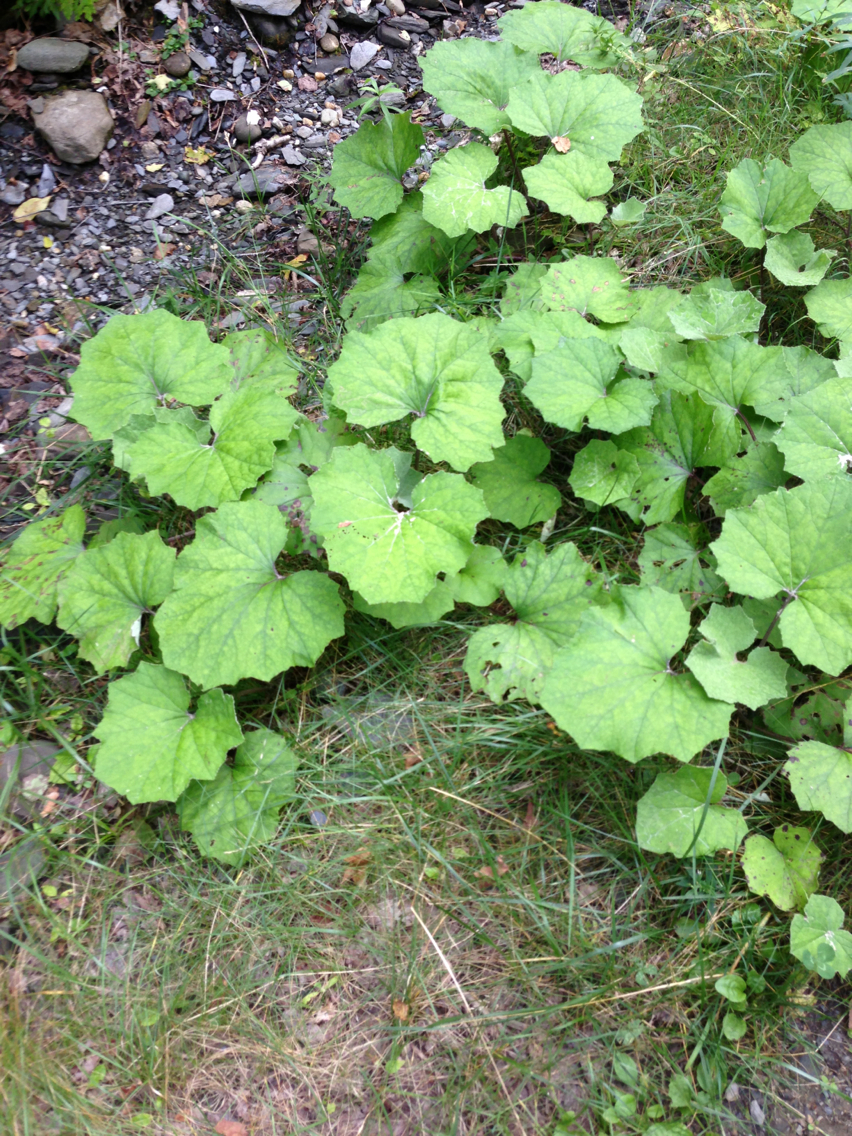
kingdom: Plantae
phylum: Tracheophyta
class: Magnoliopsida
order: Asterales
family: Asteraceae
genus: Tussilago
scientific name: Tussilago farfara
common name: Coltsfoot
